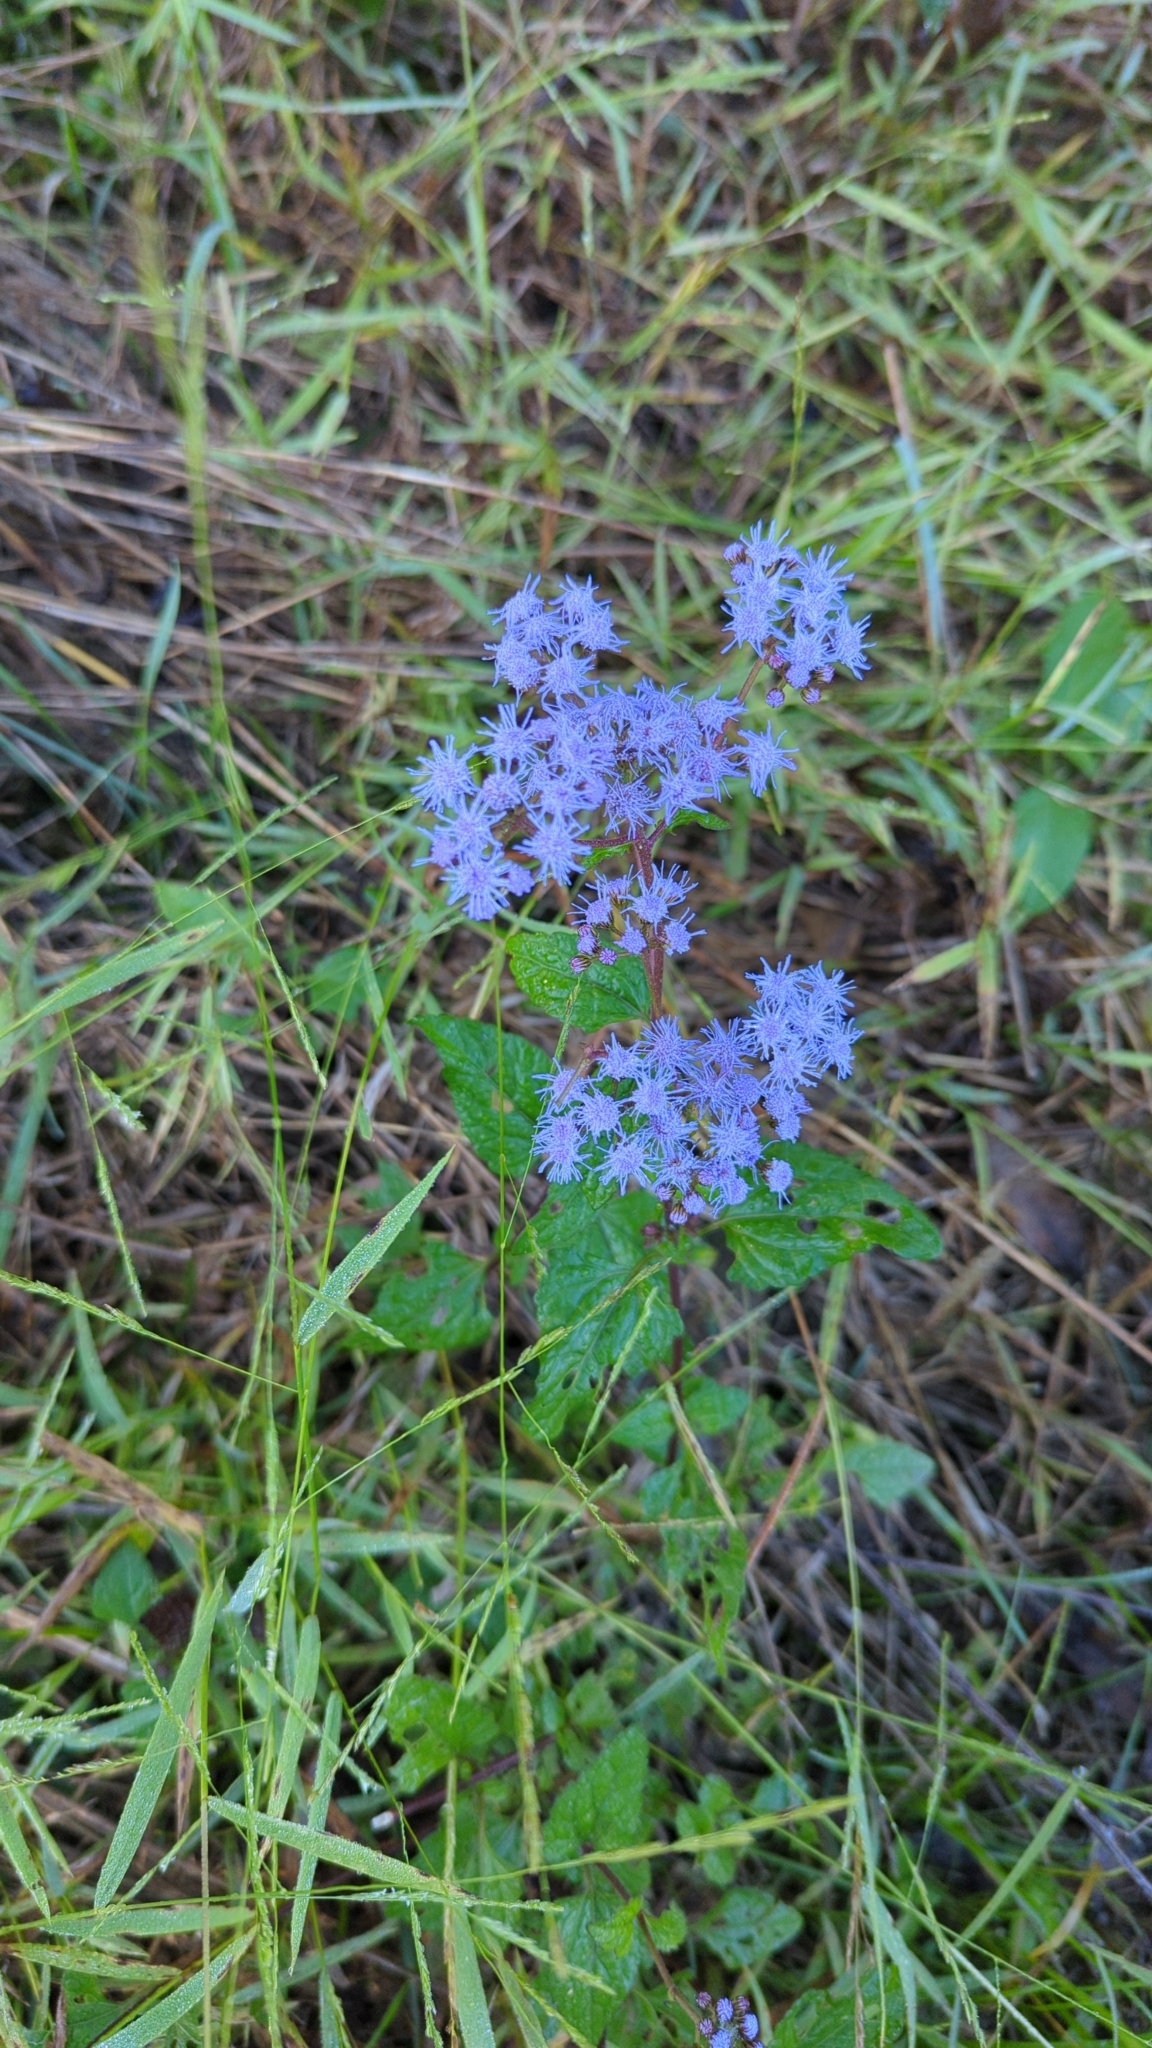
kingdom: Plantae
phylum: Tracheophyta
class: Magnoliopsida
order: Asterales
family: Asteraceae
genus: Conoclinium
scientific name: Conoclinium coelestinum
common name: Blue mistflower
